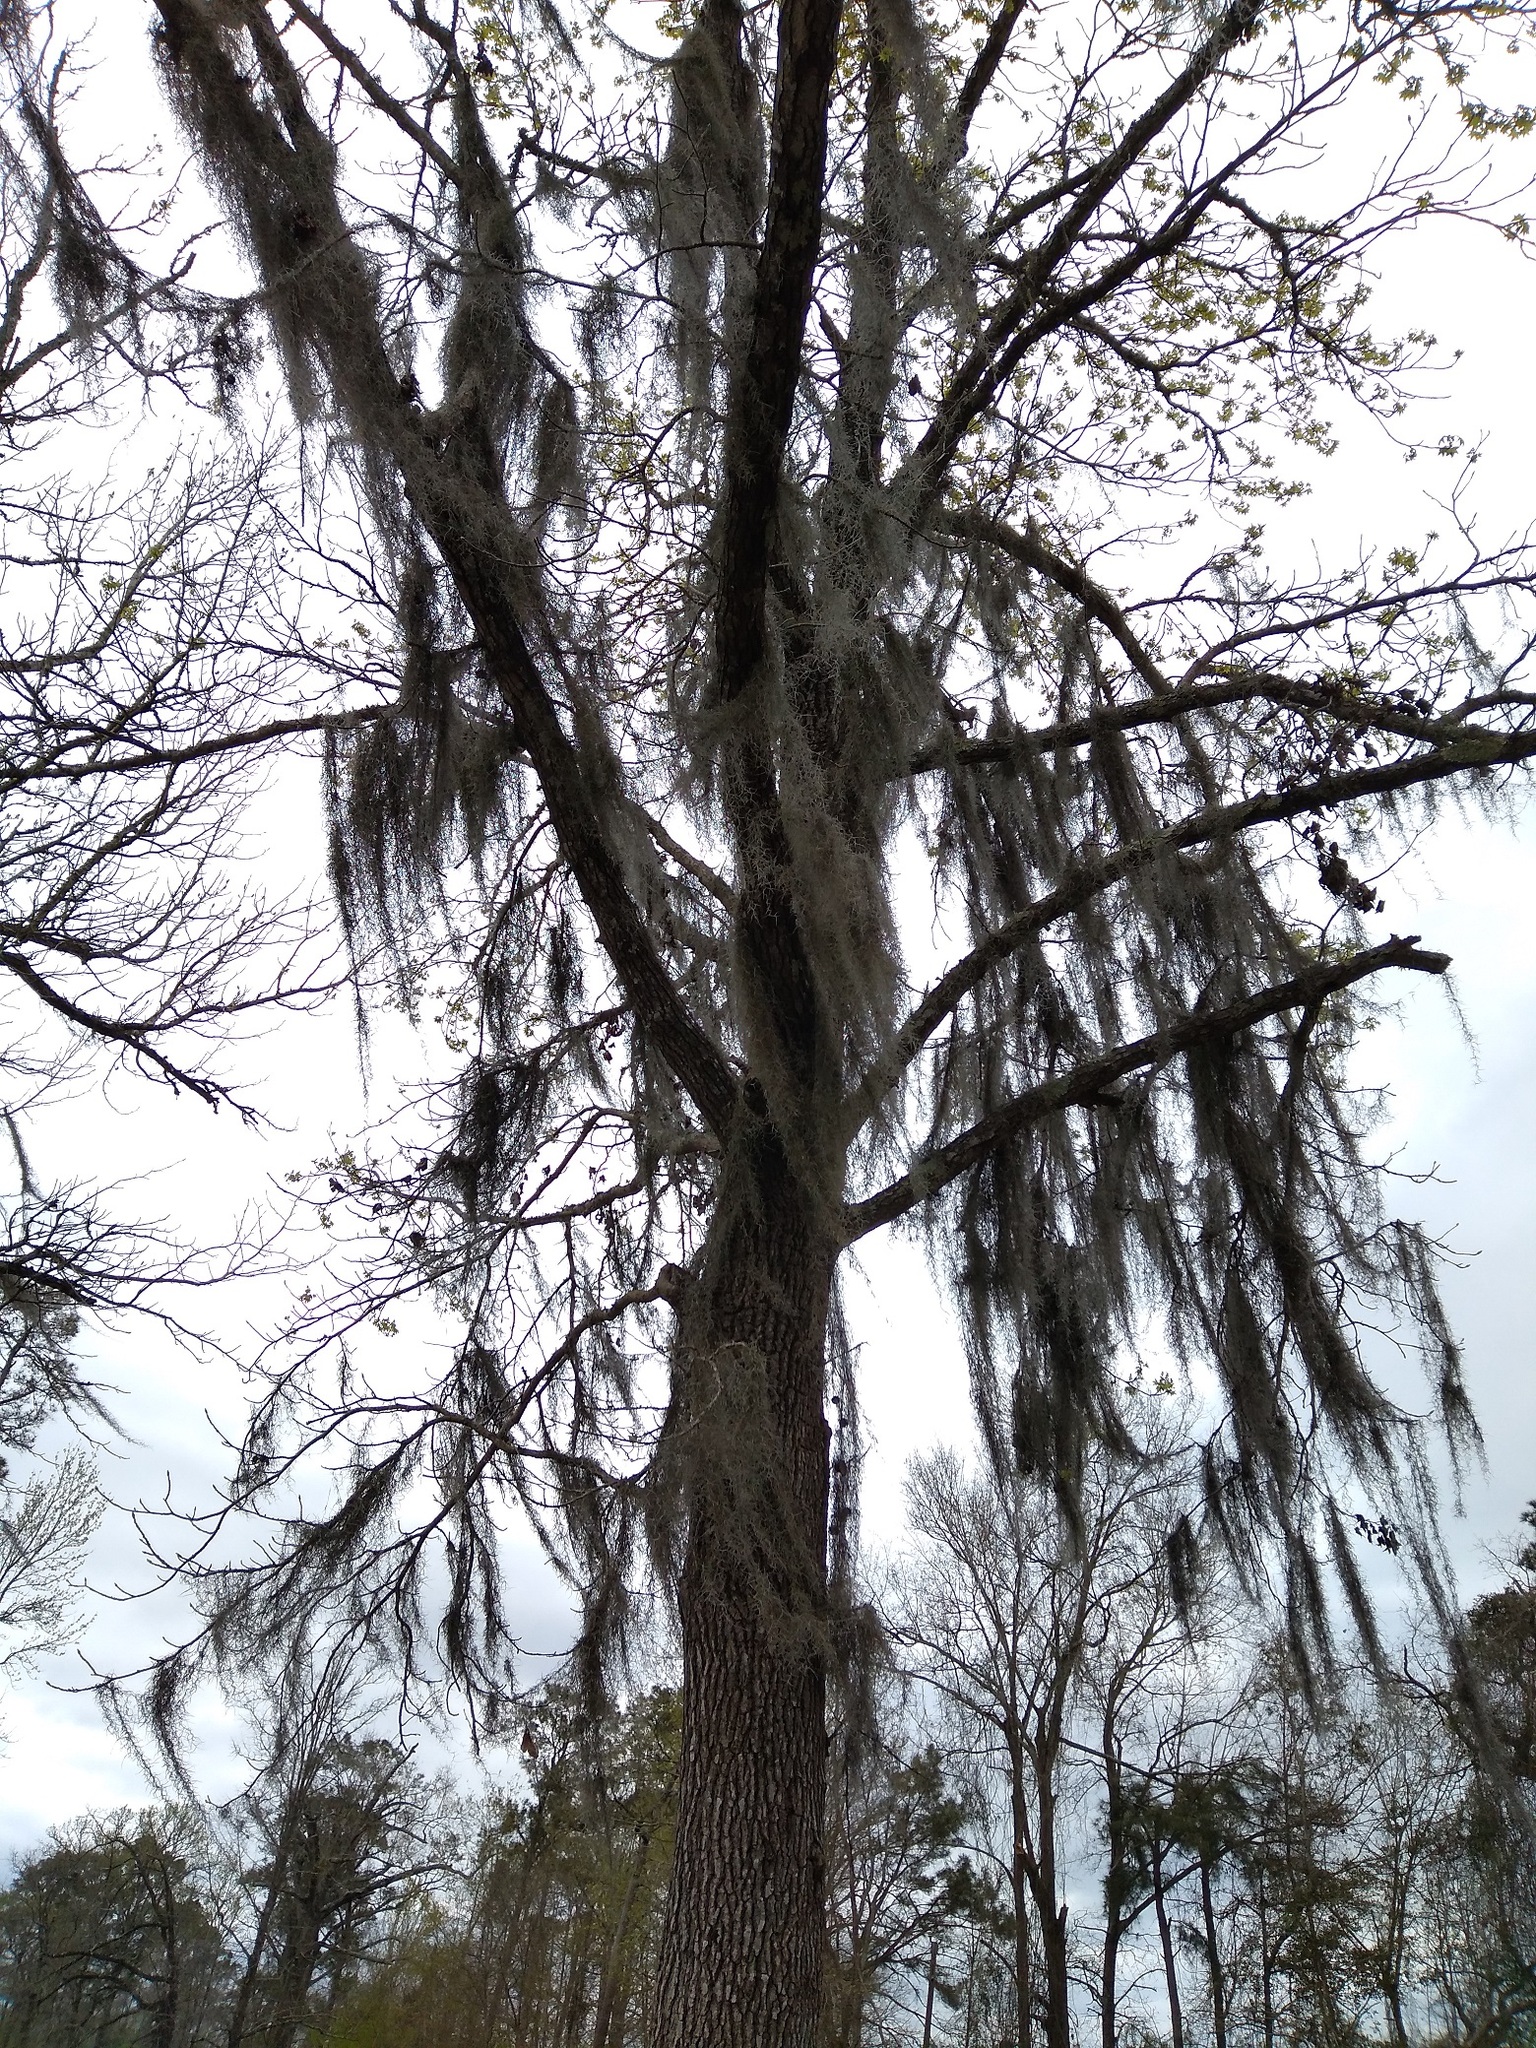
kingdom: Plantae
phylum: Tracheophyta
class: Liliopsida
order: Poales
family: Bromeliaceae
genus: Tillandsia
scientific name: Tillandsia usneoides
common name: Spanish moss
